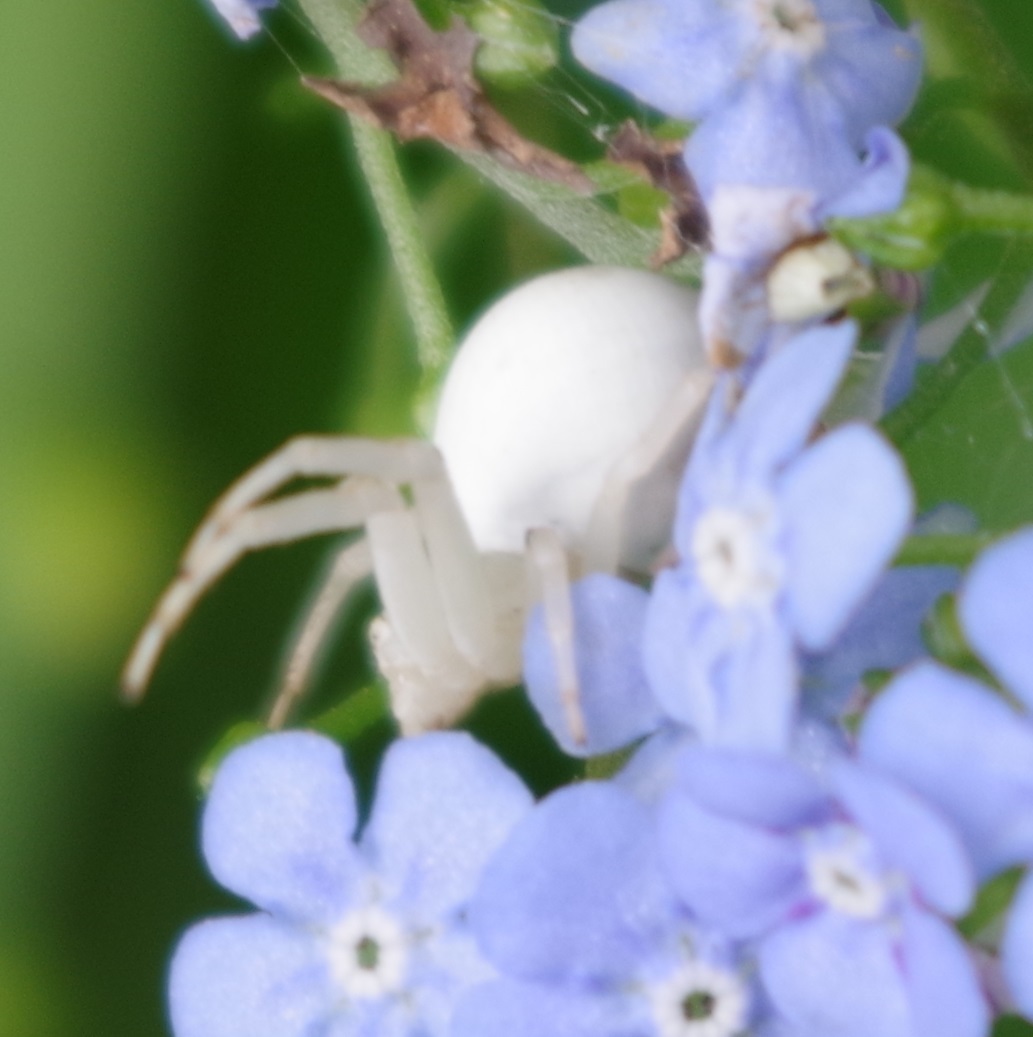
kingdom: Animalia
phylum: Arthropoda
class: Arachnida
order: Araneae
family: Thomisidae
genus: Misumena
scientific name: Misumena vatia
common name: Goldenrod crab spider
